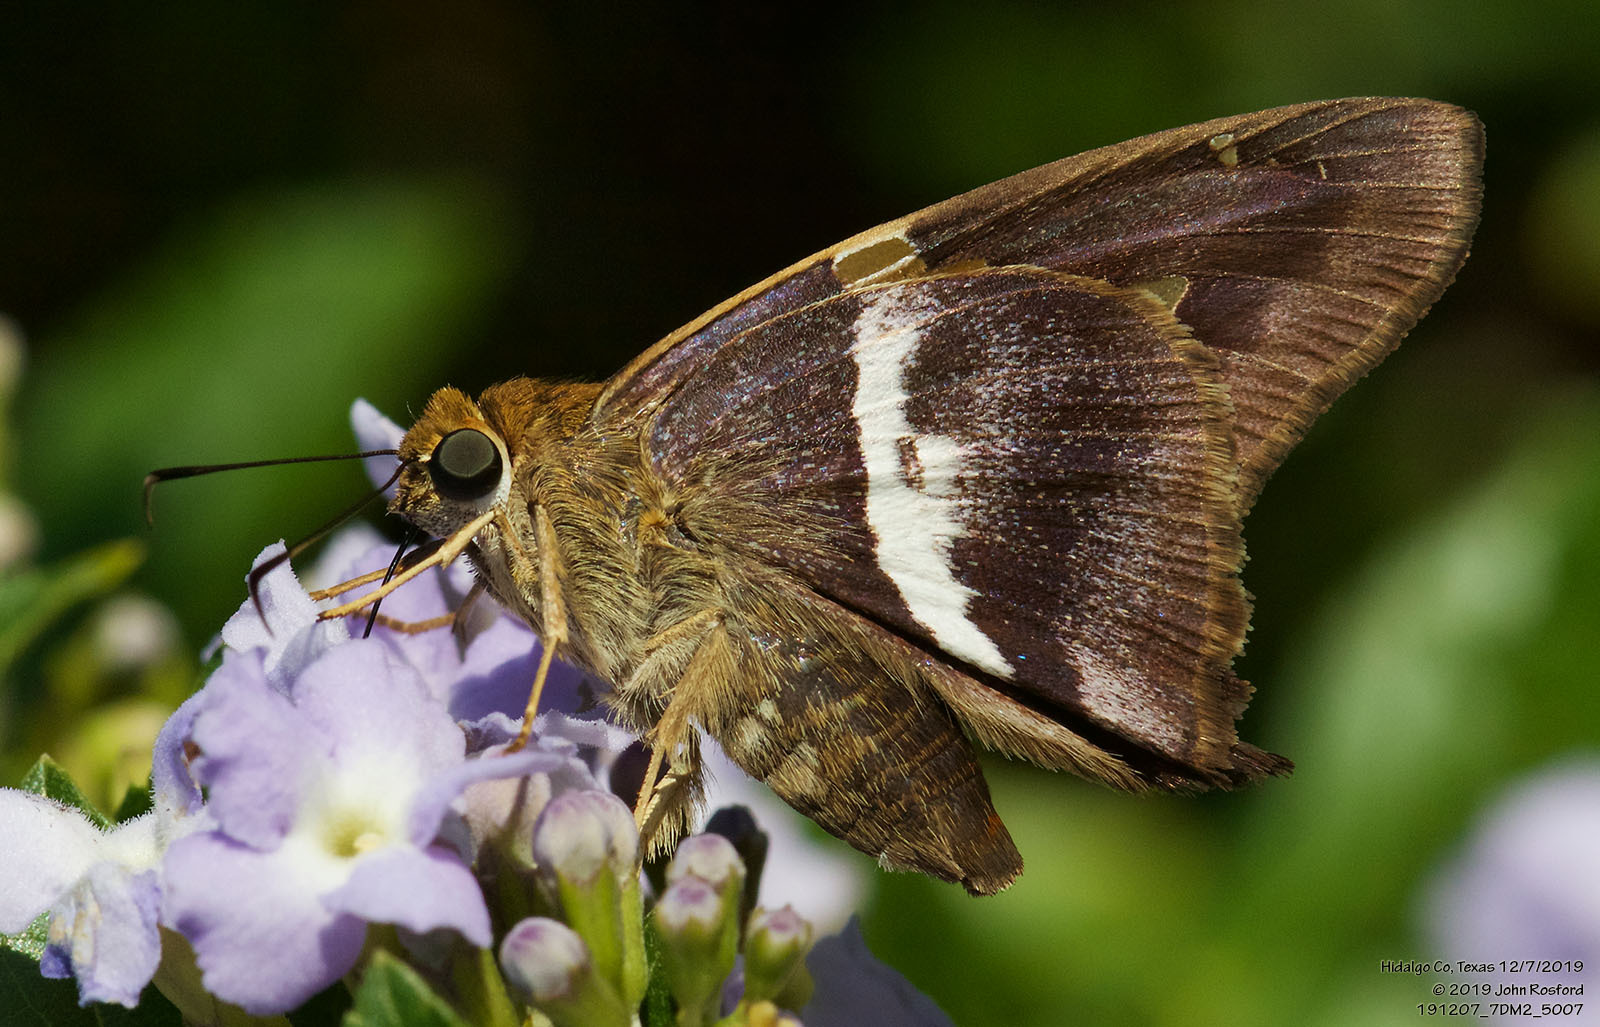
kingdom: Animalia
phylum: Arthropoda
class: Insecta
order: Lepidoptera
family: Hesperiidae
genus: Aguna
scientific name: Aguna asander
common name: Gold-spotted aguna
